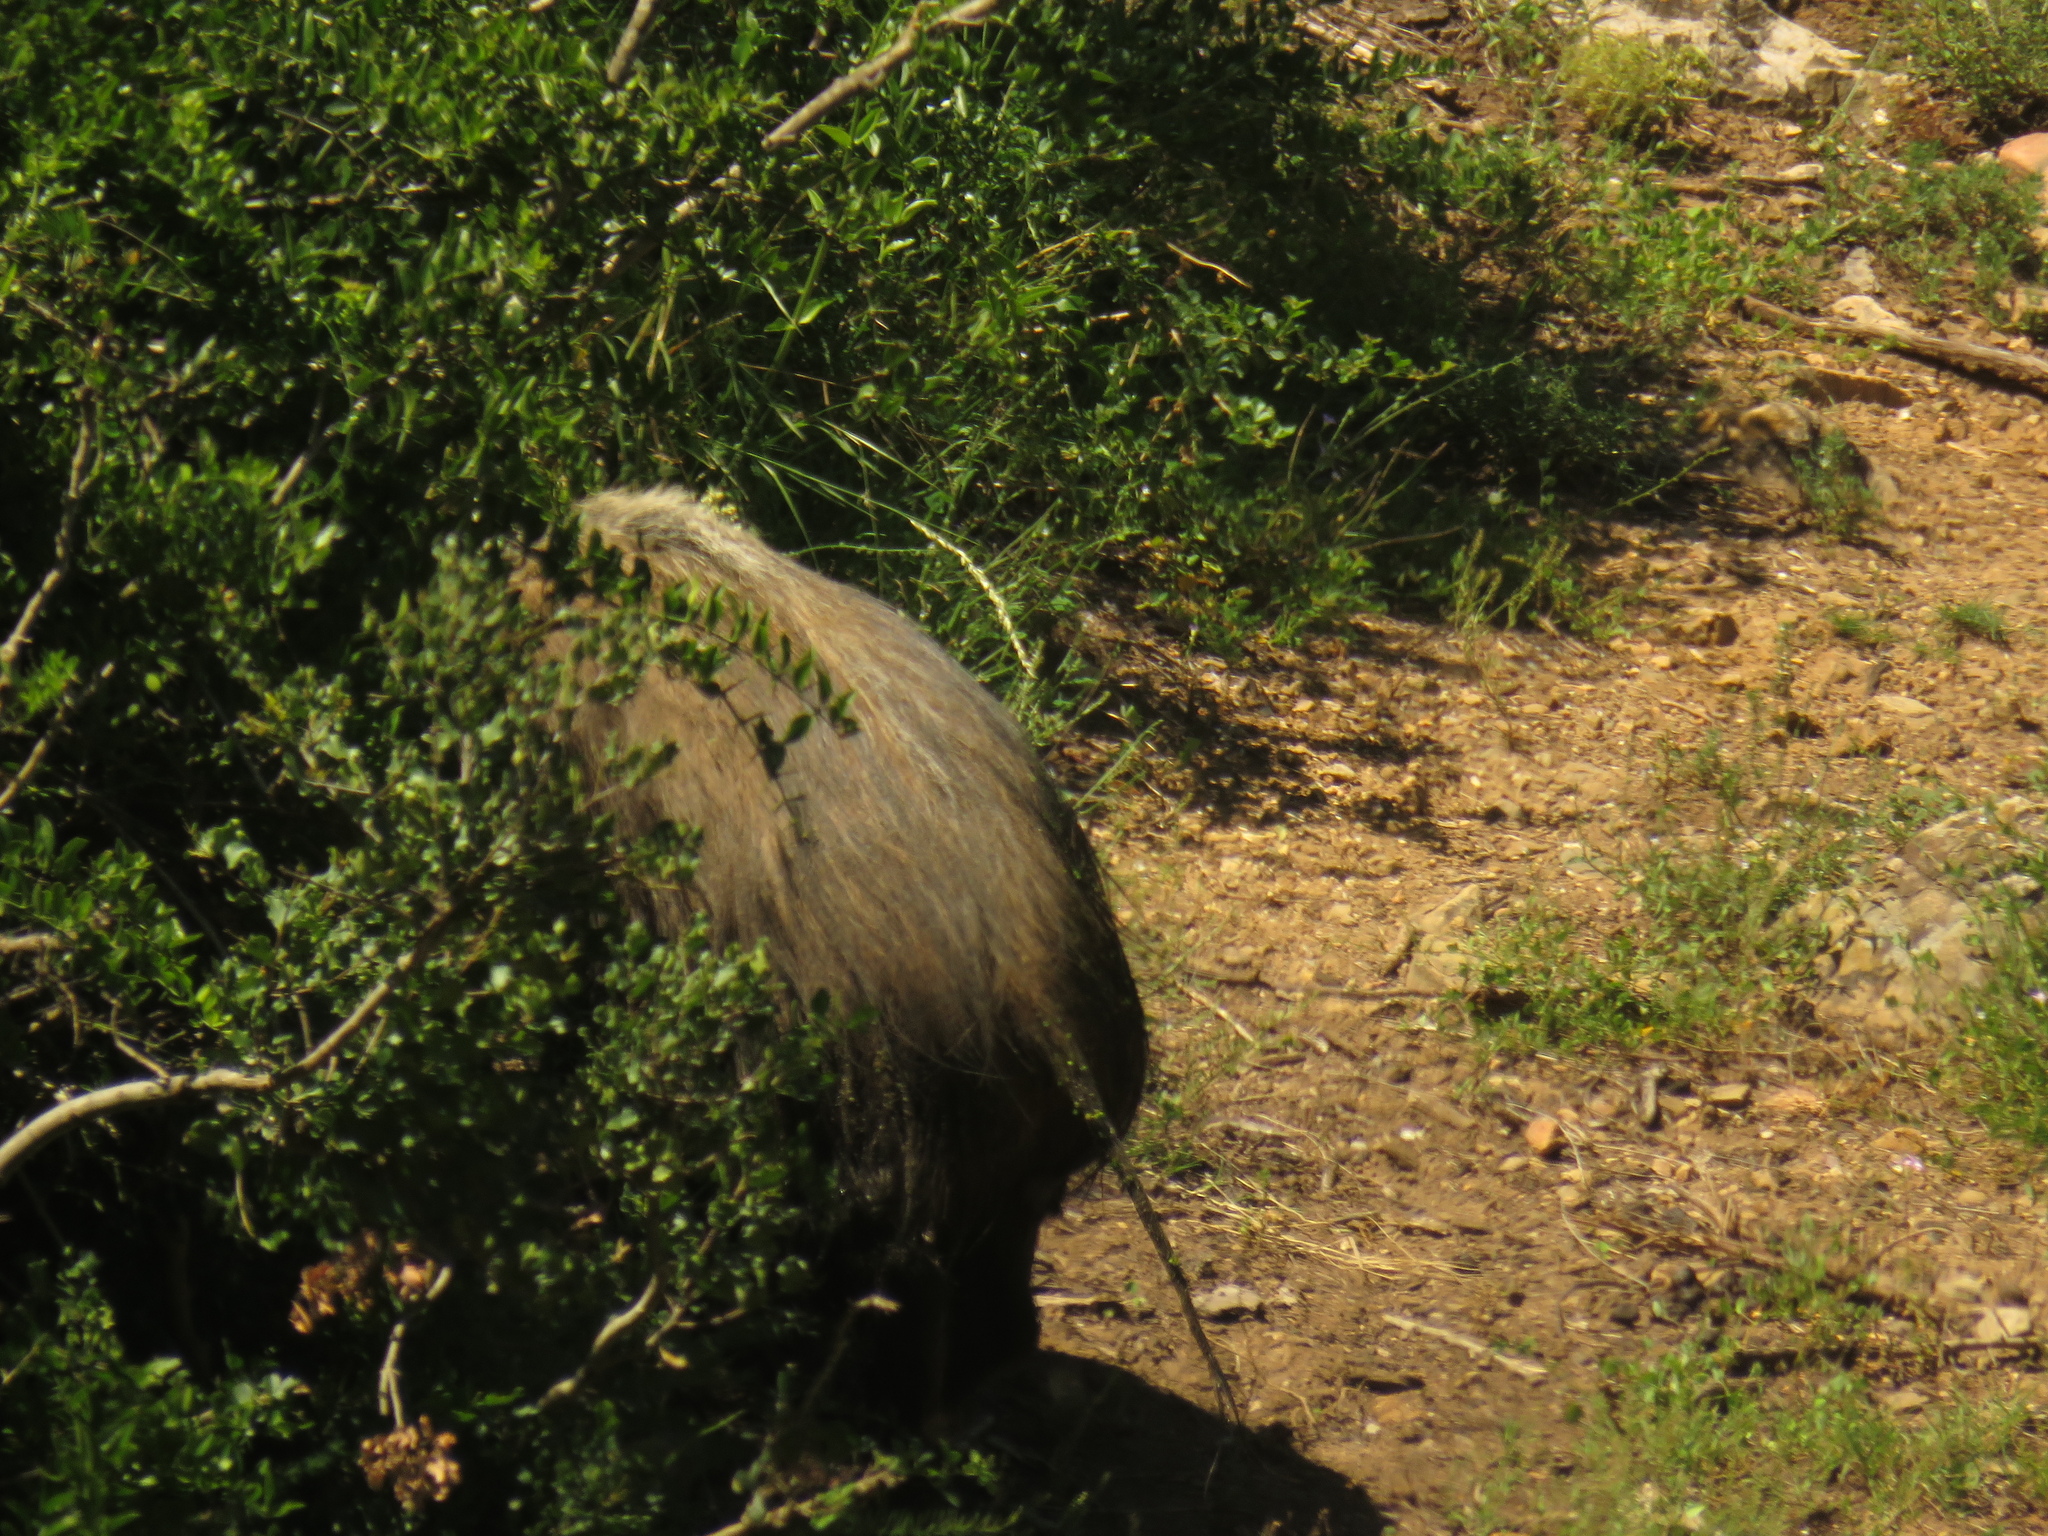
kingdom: Animalia
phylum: Chordata
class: Mammalia
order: Artiodactyla
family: Suidae
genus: Potamochoerus
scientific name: Potamochoerus larvatus
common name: Bushpig
